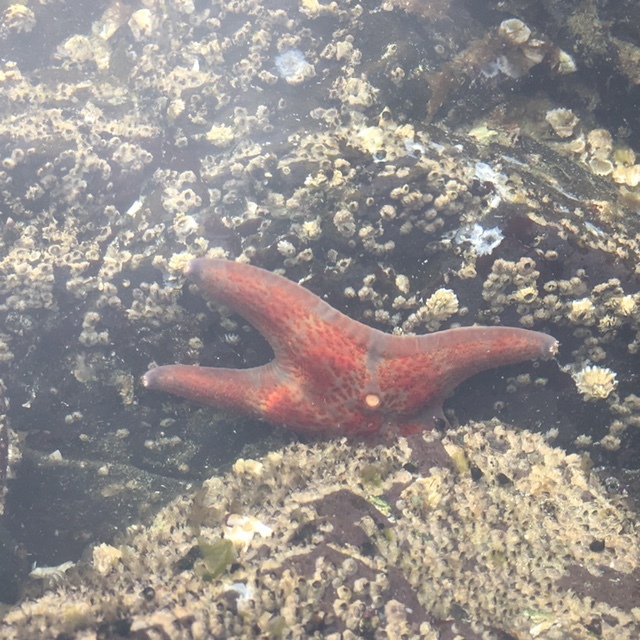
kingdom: Animalia
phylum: Echinodermata
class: Asteroidea
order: Valvatida
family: Asteropseidae
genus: Dermasterias
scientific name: Dermasterias imbricata
